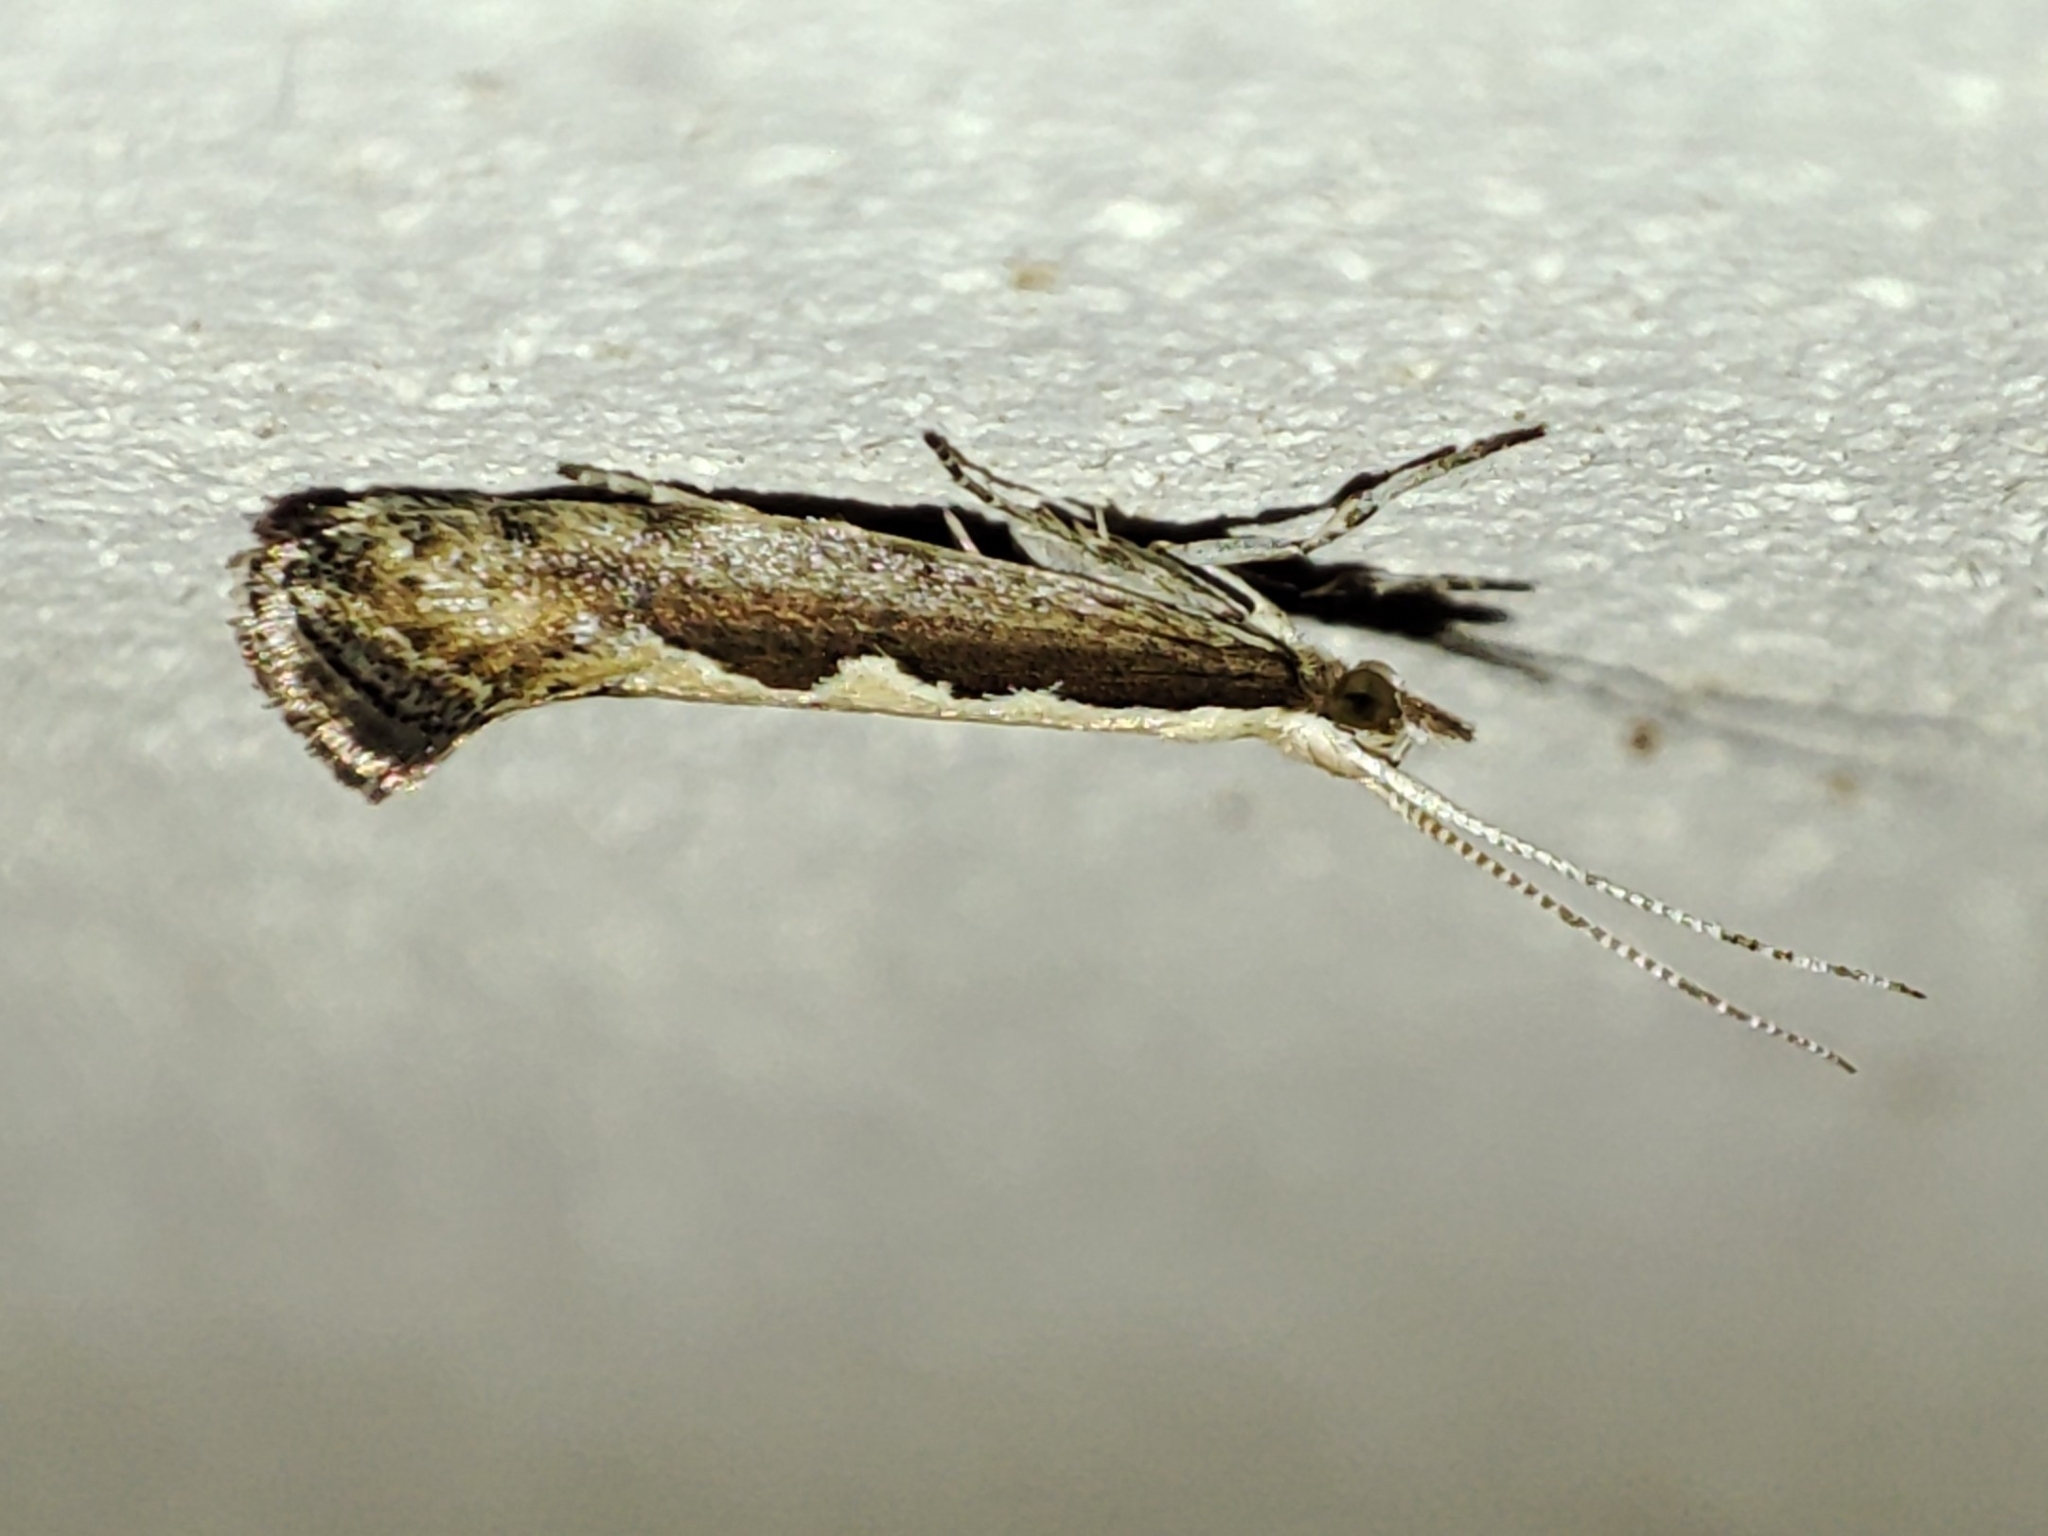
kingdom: Animalia
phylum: Arthropoda
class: Insecta
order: Lepidoptera
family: Plutellidae
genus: Plutella
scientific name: Plutella xylostella
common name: Diamond-back moth
